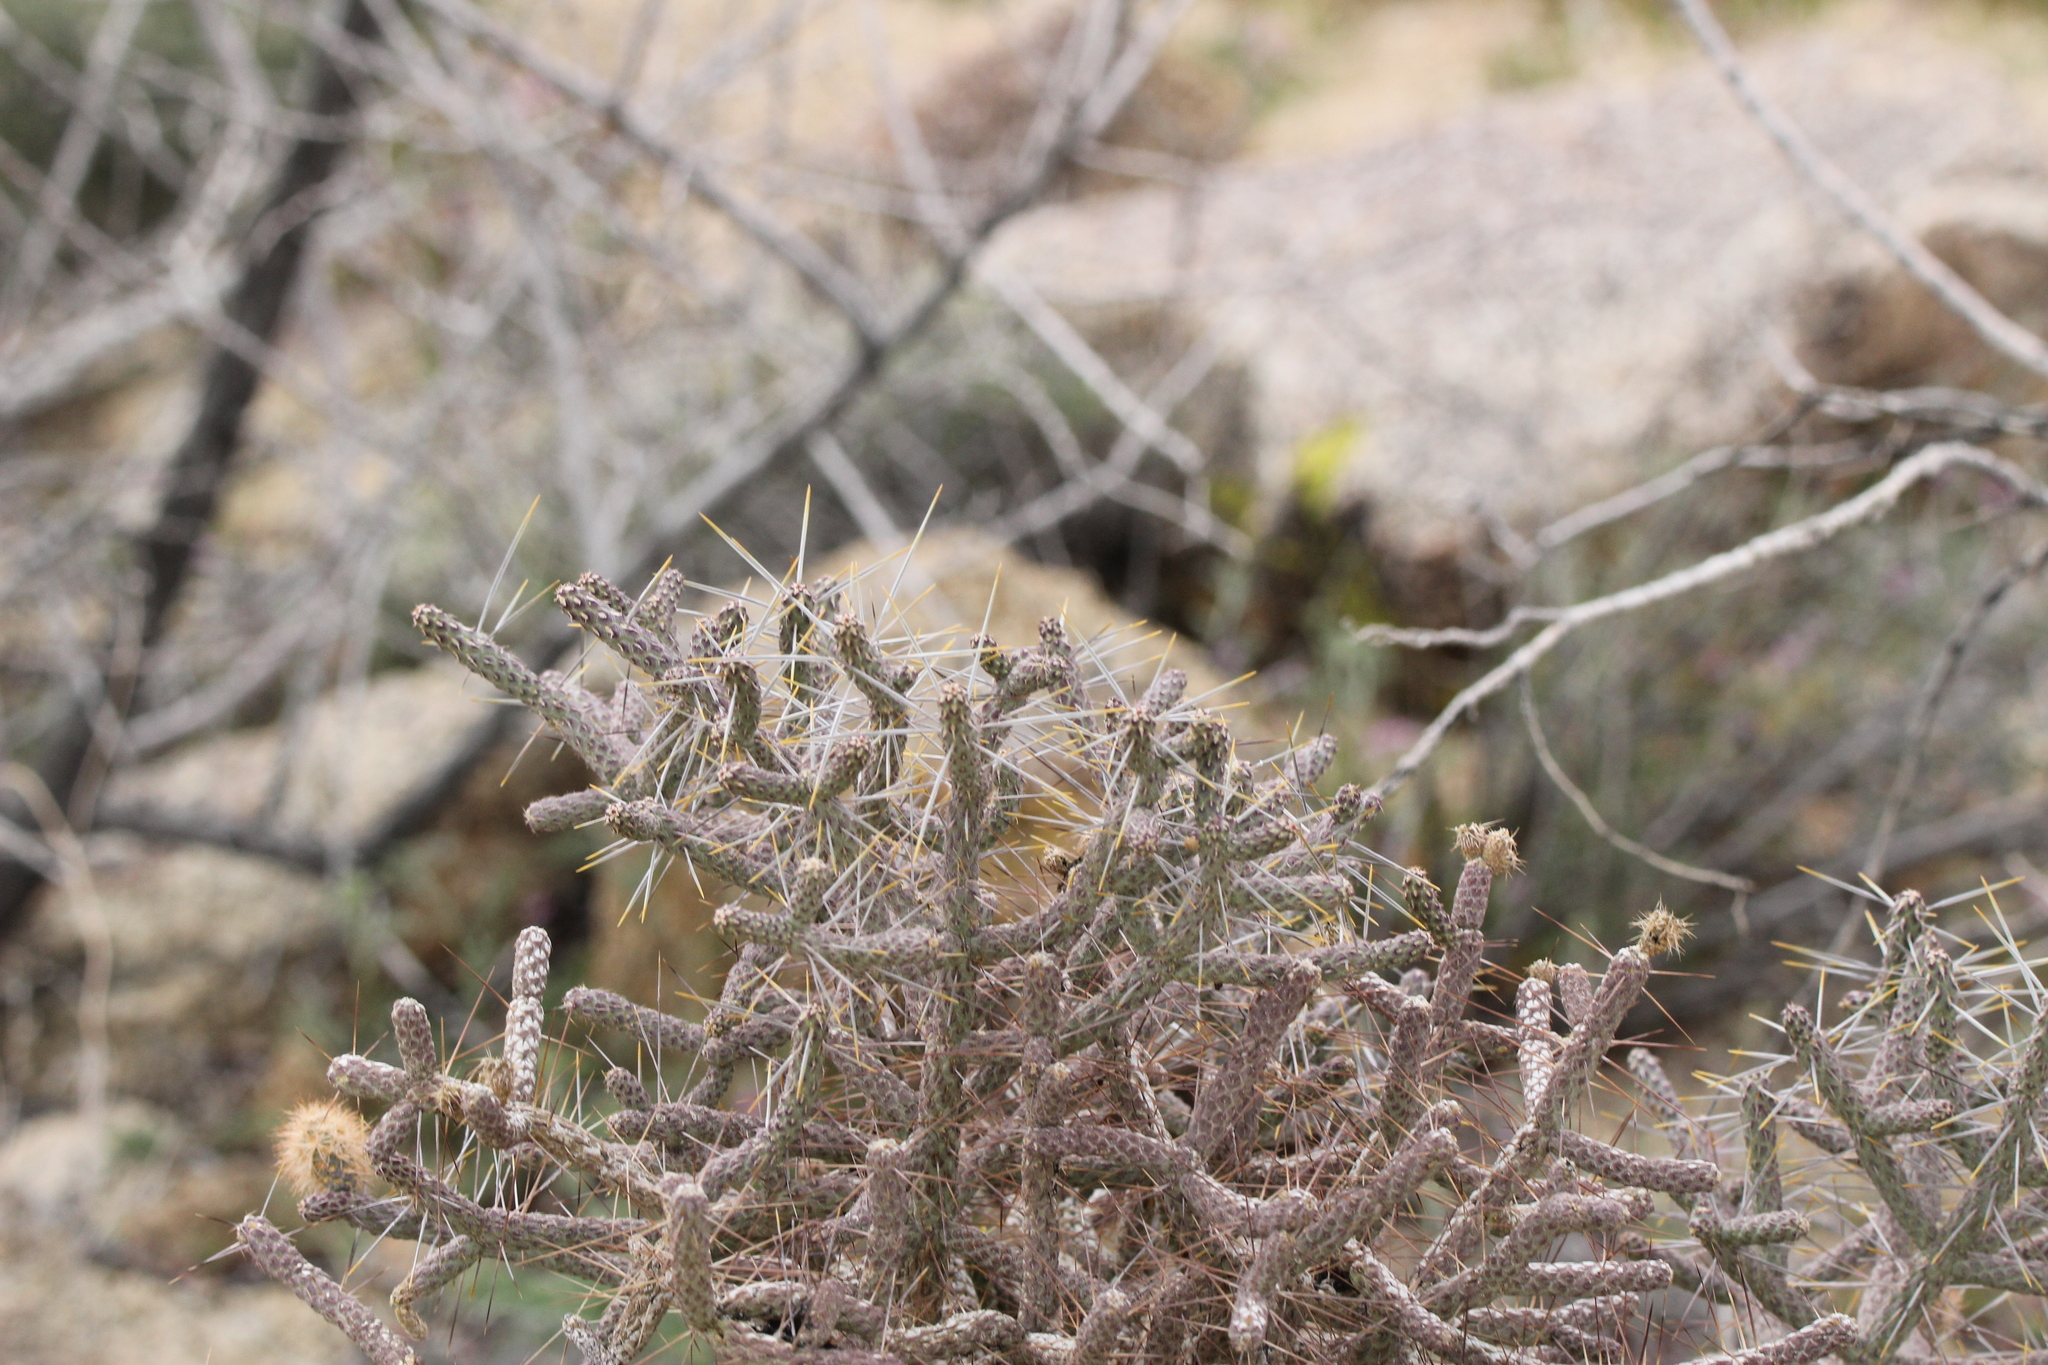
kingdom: Plantae
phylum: Tracheophyta
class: Magnoliopsida
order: Caryophyllales
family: Cactaceae
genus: Cylindropuntia
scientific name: Cylindropuntia ramosissima
